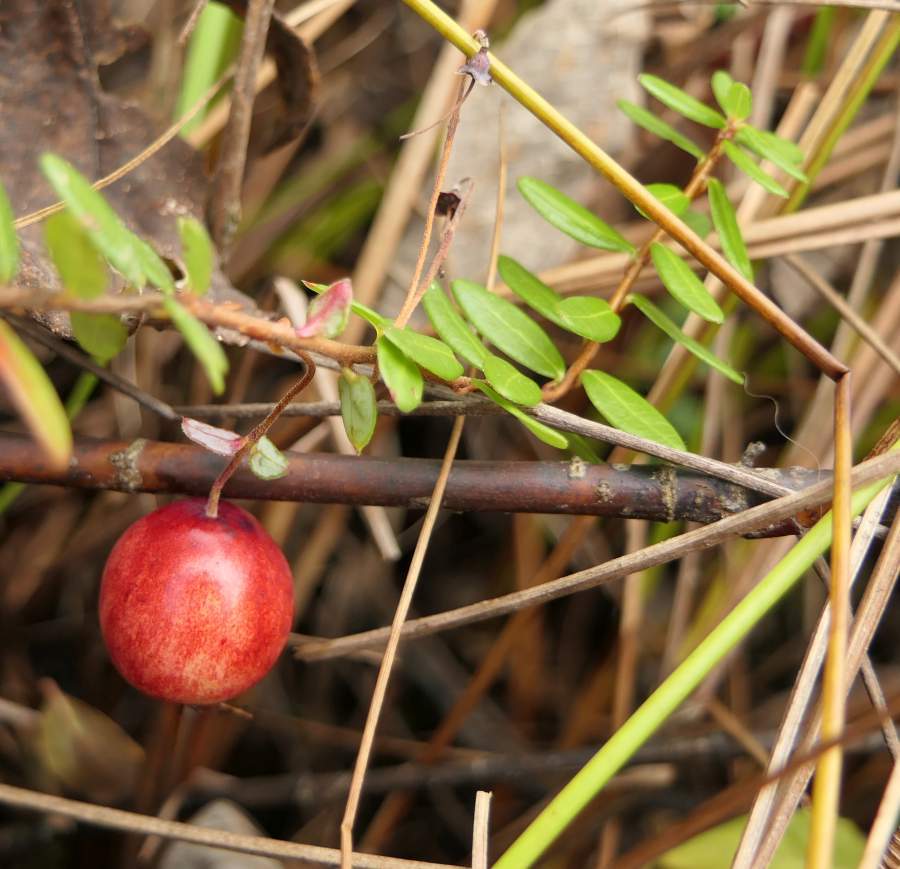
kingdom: Plantae
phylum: Tracheophyta
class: Magnoliopsida
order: Ericales
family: Ericaceae
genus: Vaccinium
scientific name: Vaccinium oxycoccos
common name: Cranberry
